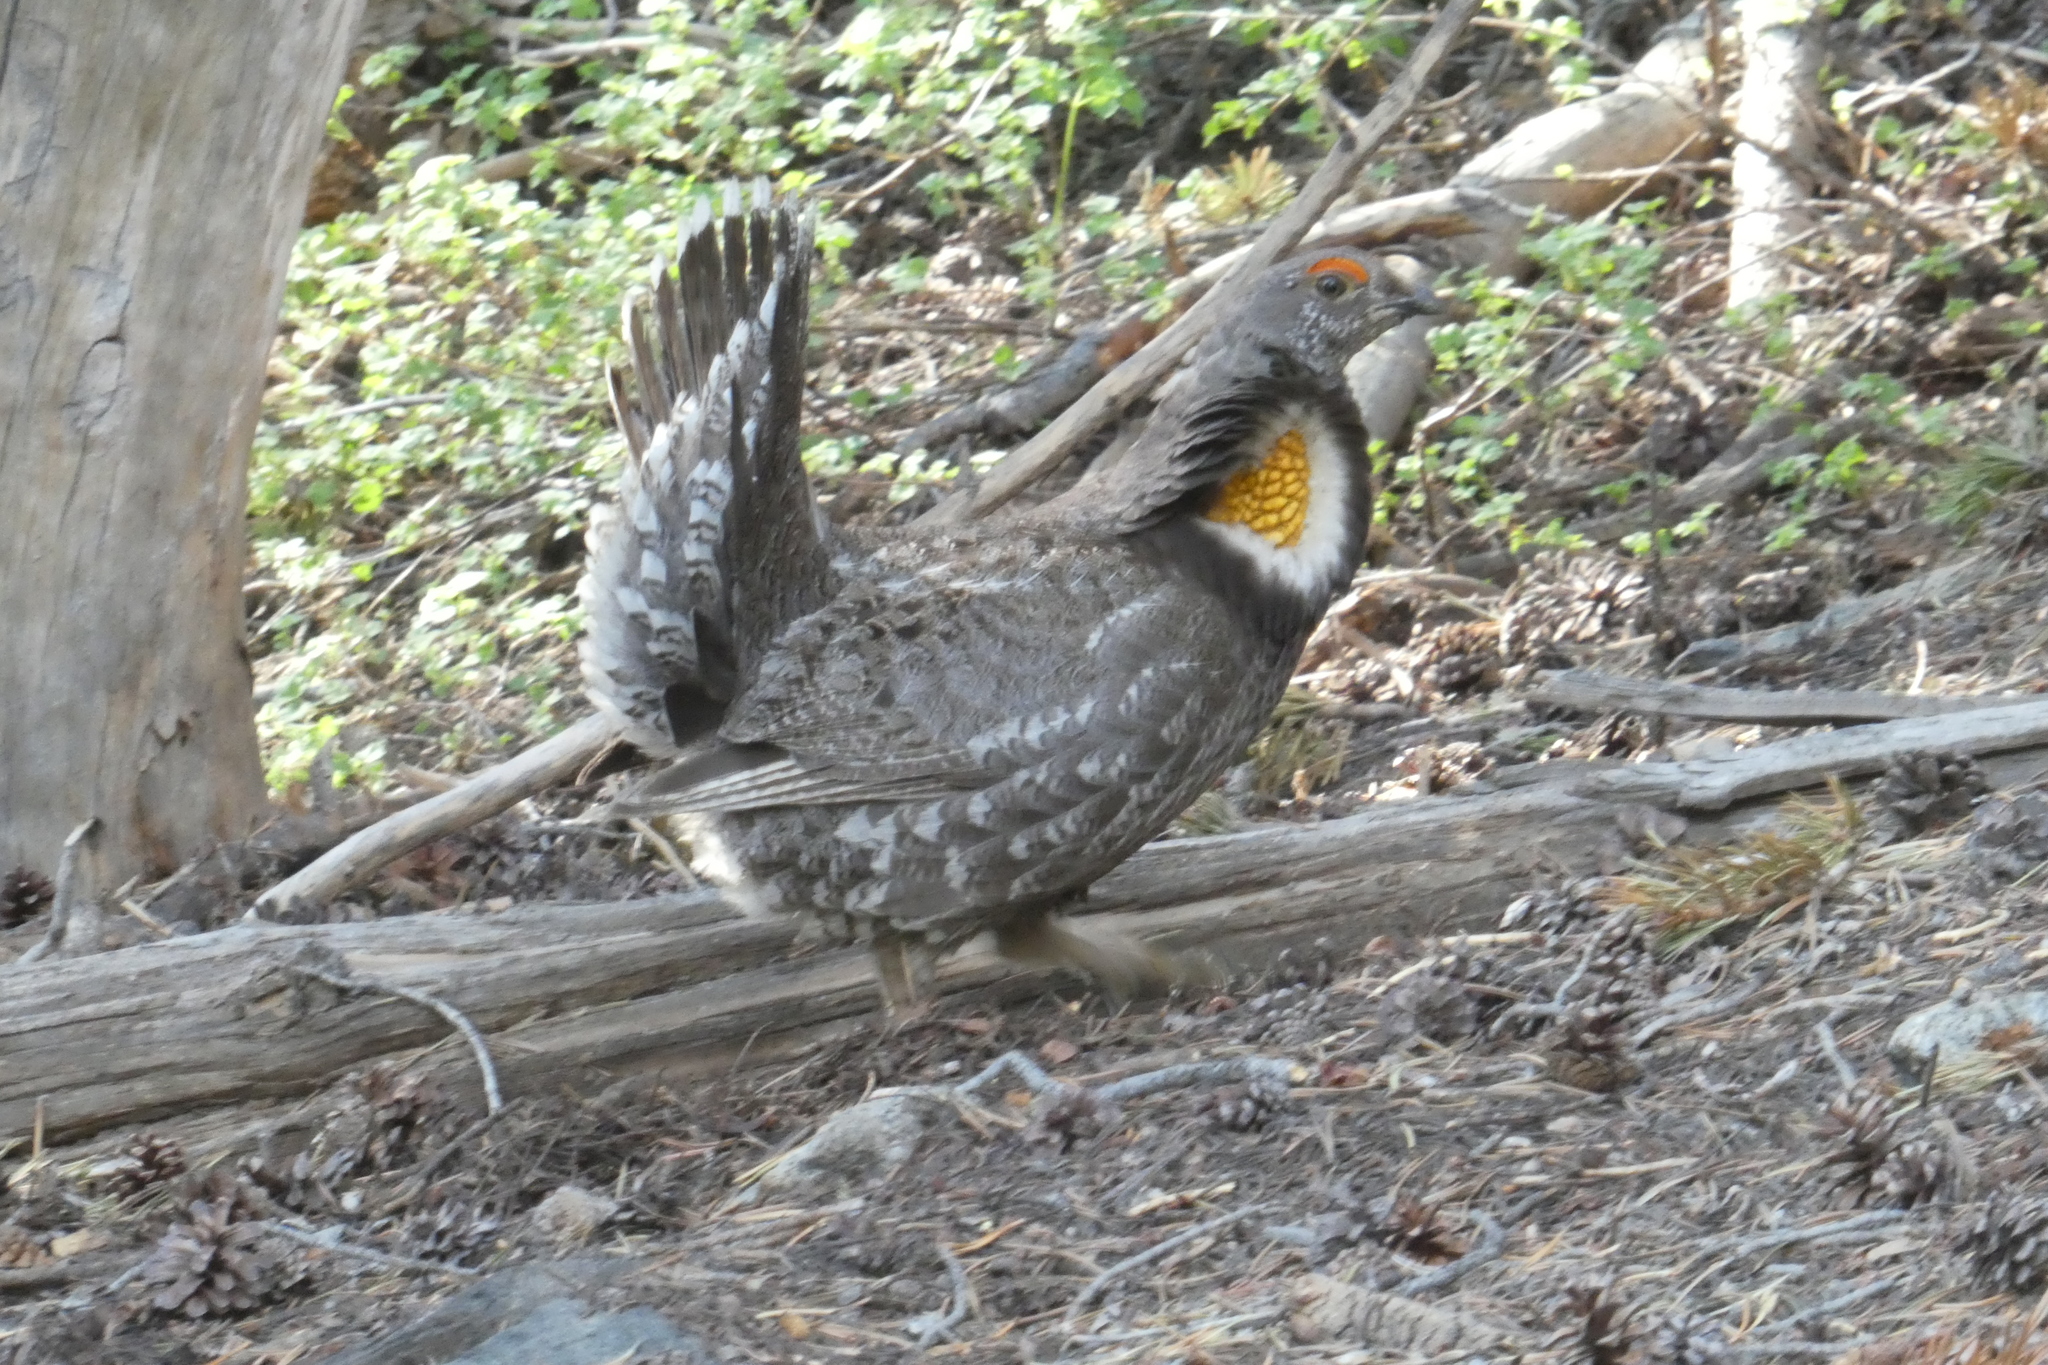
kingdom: Animalia
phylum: Chordata
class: Aves
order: Galliformes
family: Phasianidae
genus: Dendragapus
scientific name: Dendragapus fuliginosus
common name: Sooty grouse
